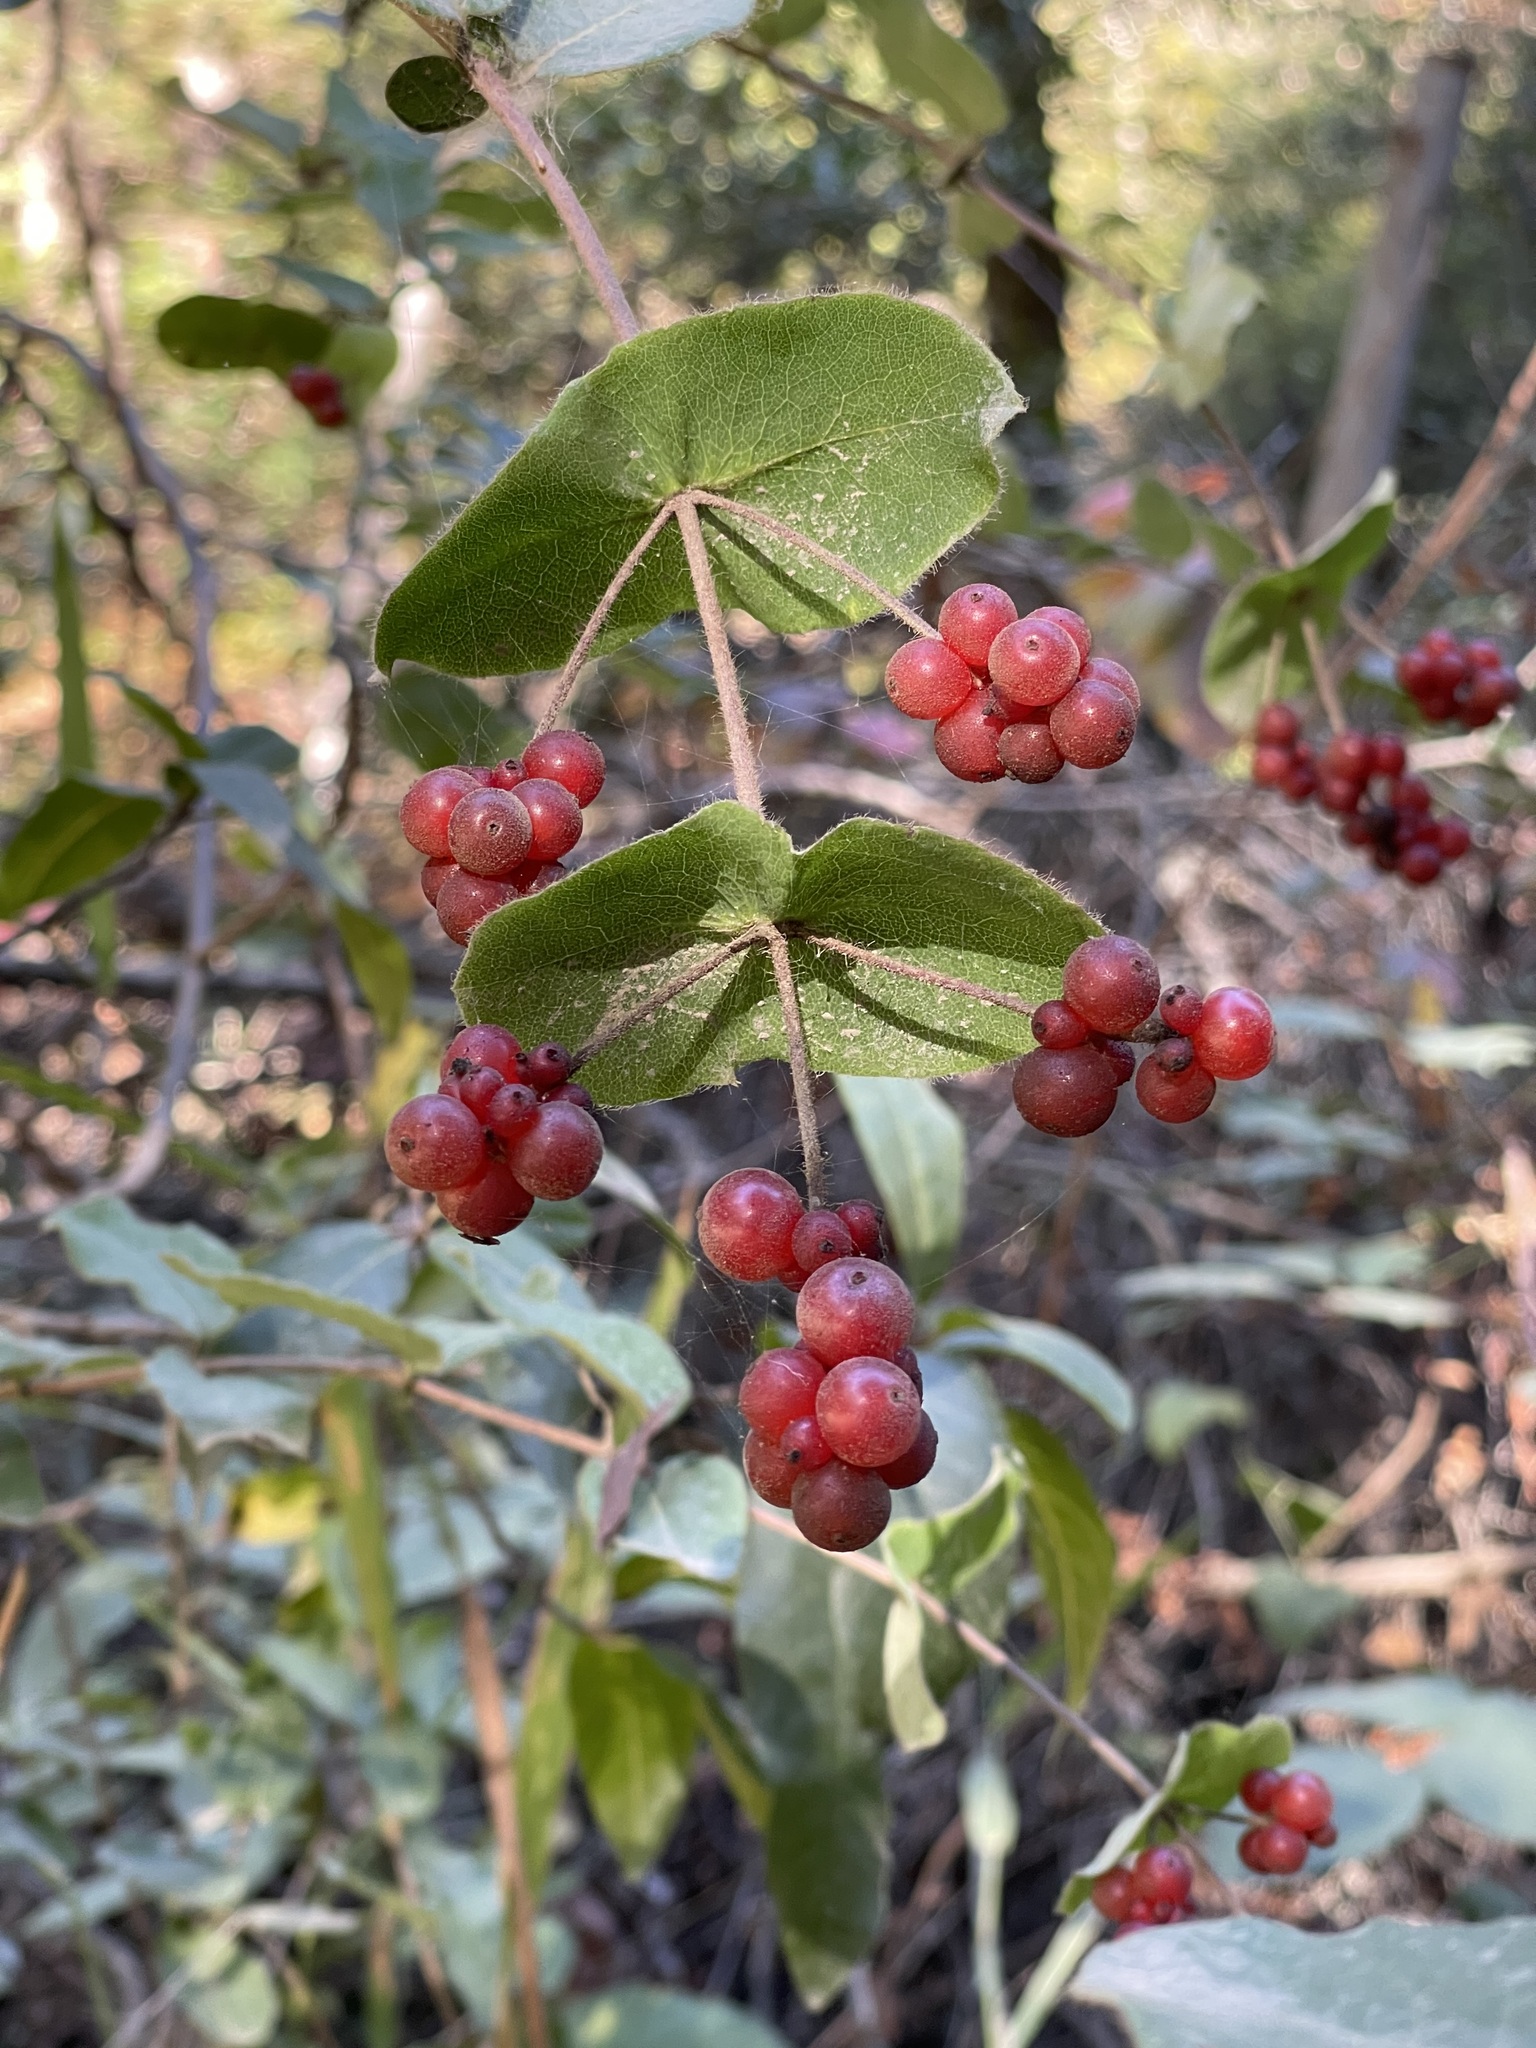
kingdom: Plantae
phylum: Tracheophyta
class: Magnoliopsida
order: Dipsacales
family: Caprifoliaceae
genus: Lonicera
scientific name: Lonicera hispidula
